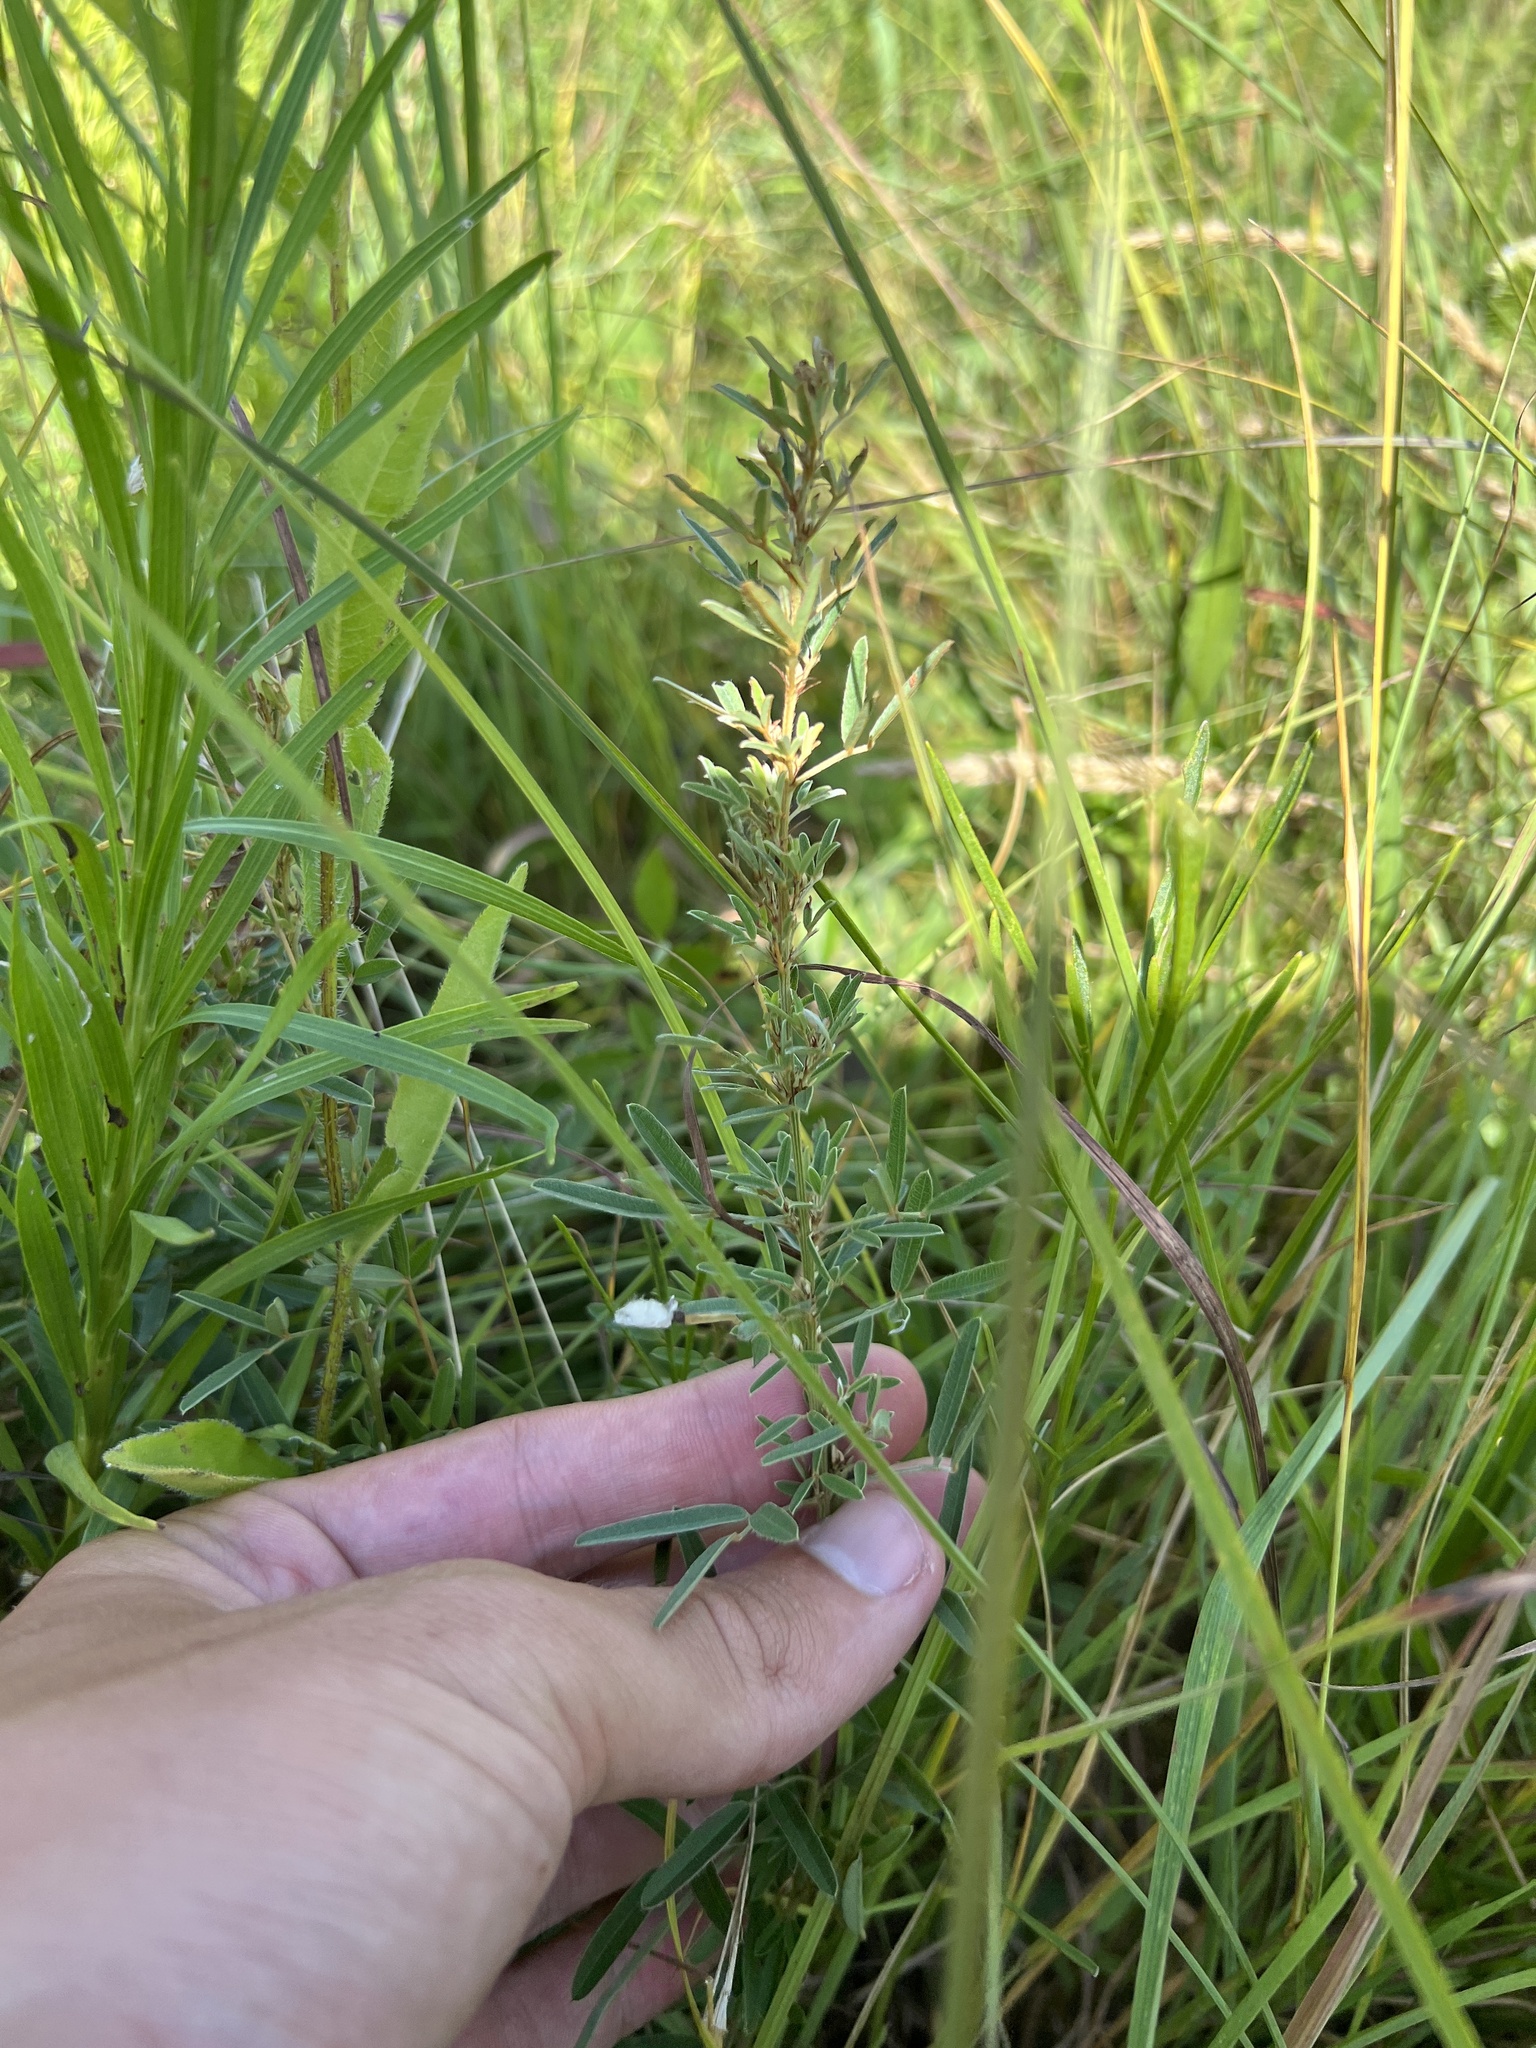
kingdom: Plantae
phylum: Tracheophyta
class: Magnoliopsida
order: Fabales
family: Fabaceae
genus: Lespedeza
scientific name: Lespedeza virginica
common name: Slender bush-clover
